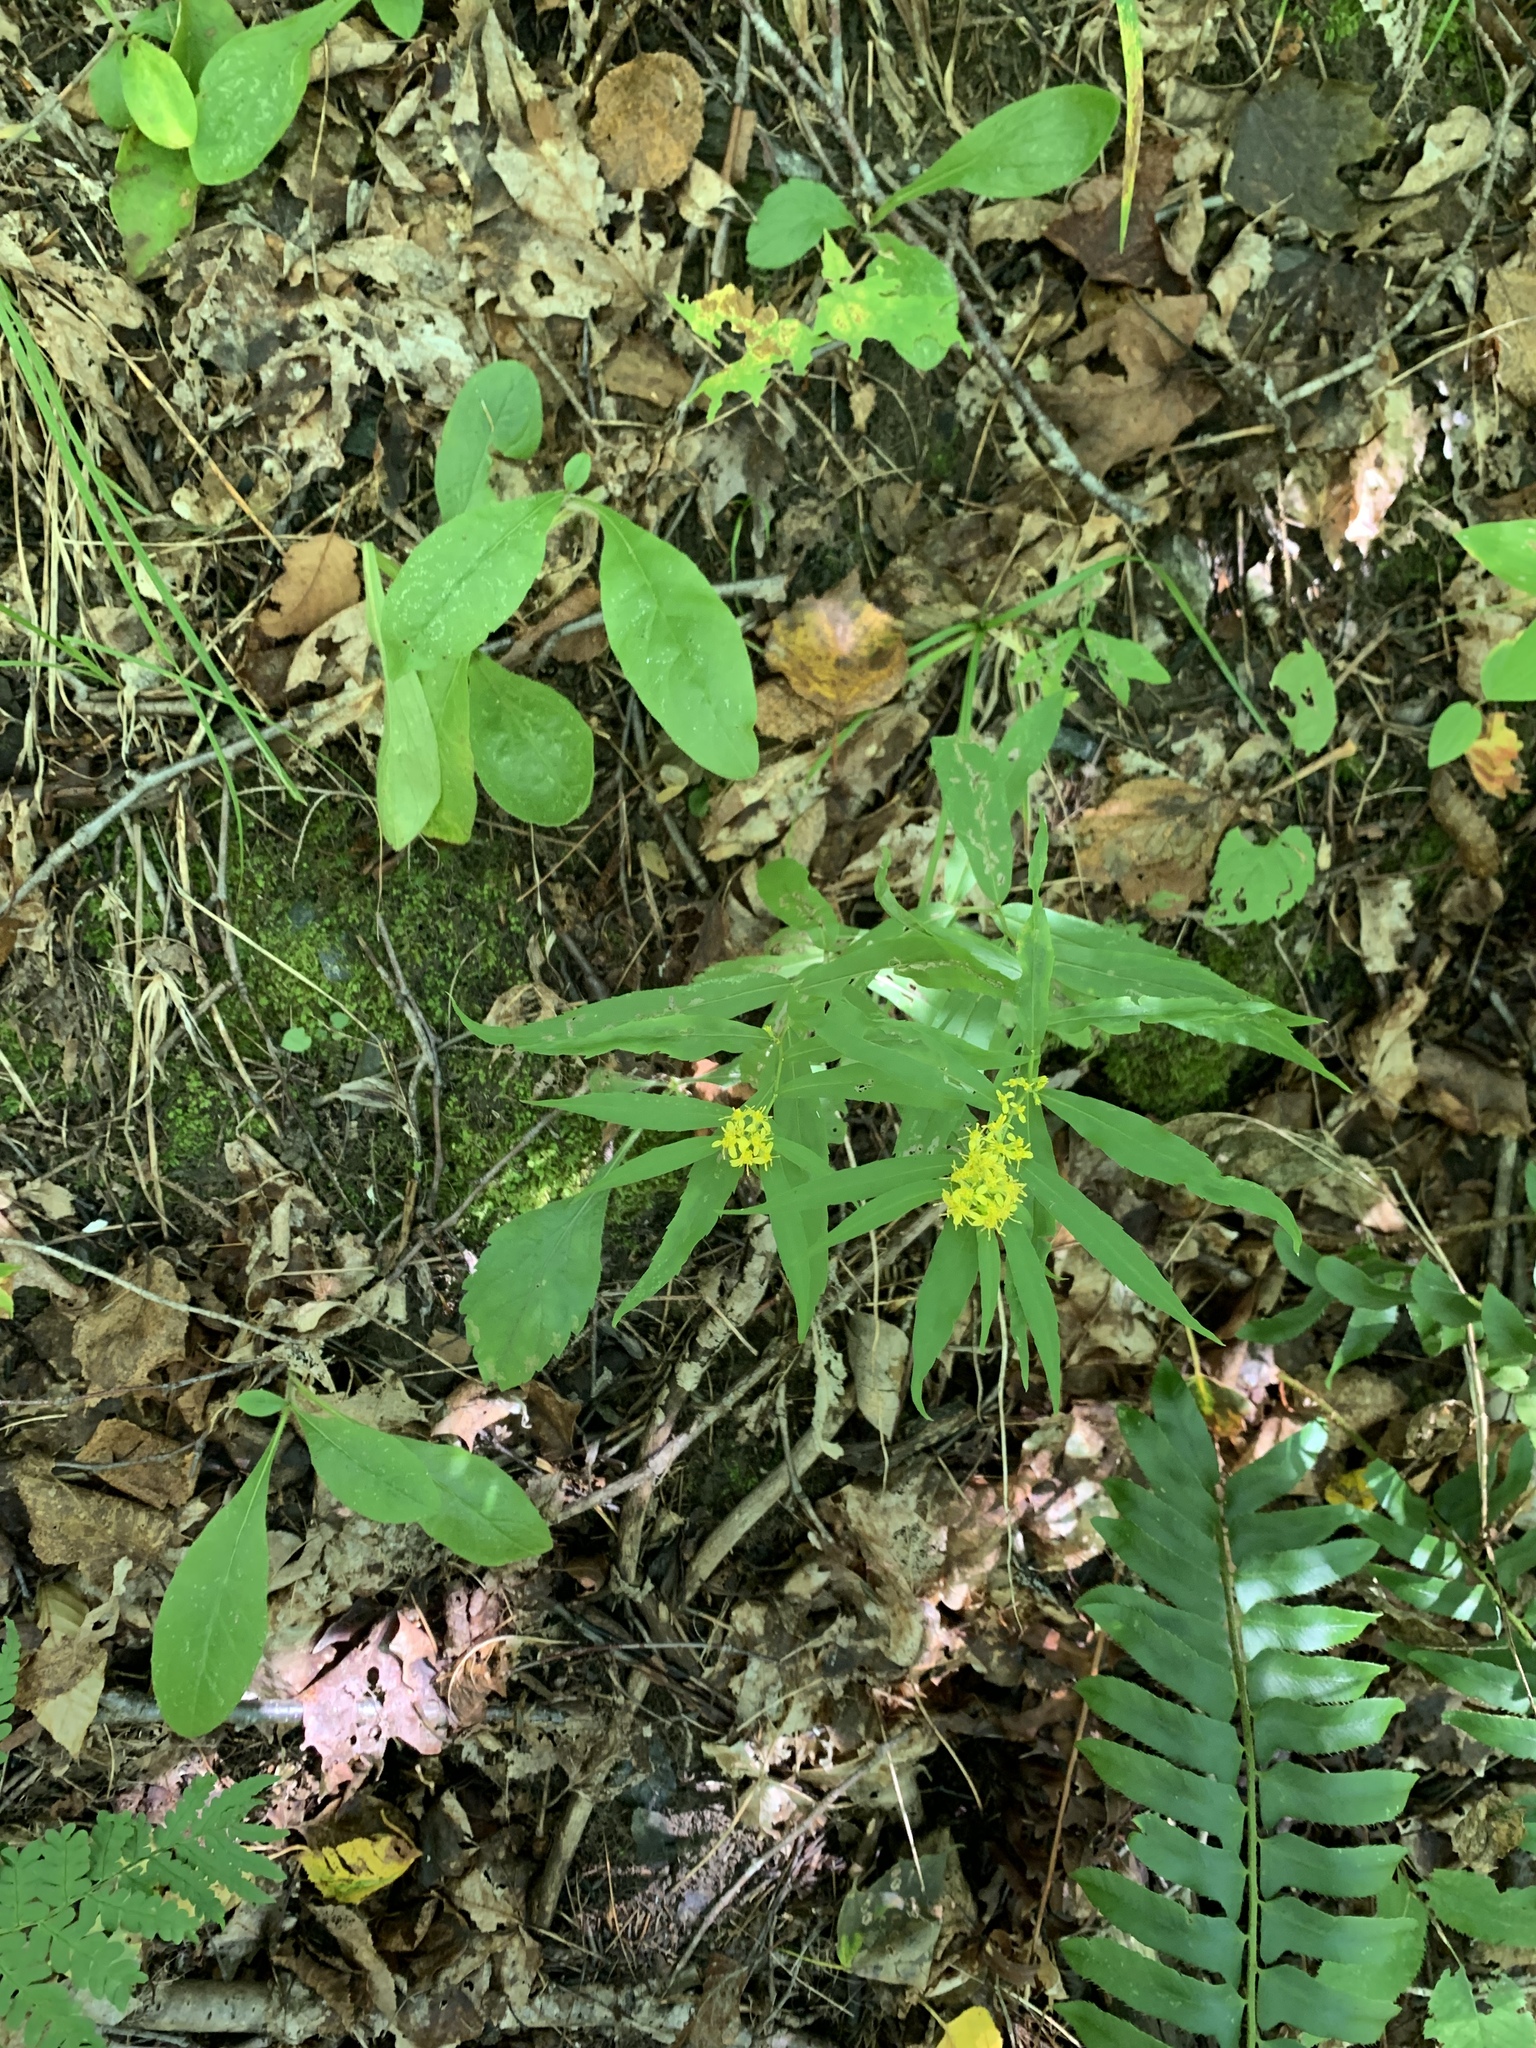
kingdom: Plantae
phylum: Tracheophyta
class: Magnoliopsida
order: Asterales
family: Asteraceae
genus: Solidago
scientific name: Solidago caesia
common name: Woodland goldenrod
